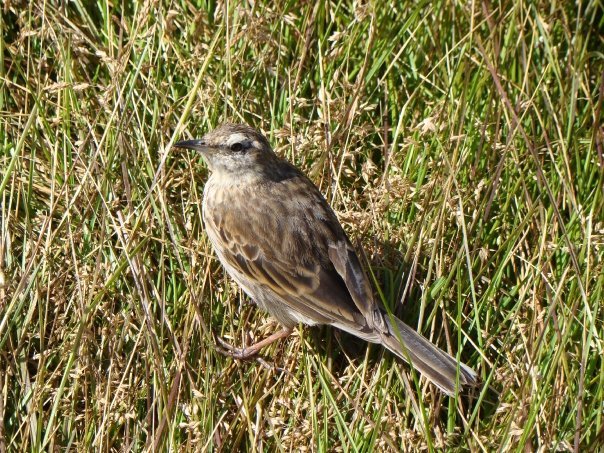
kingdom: Animalia
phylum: Chordata
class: Aves
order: Passeriformes
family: Motacillidae
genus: Anthus
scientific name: Anthus novaeseelandiae
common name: New zealand pipit
